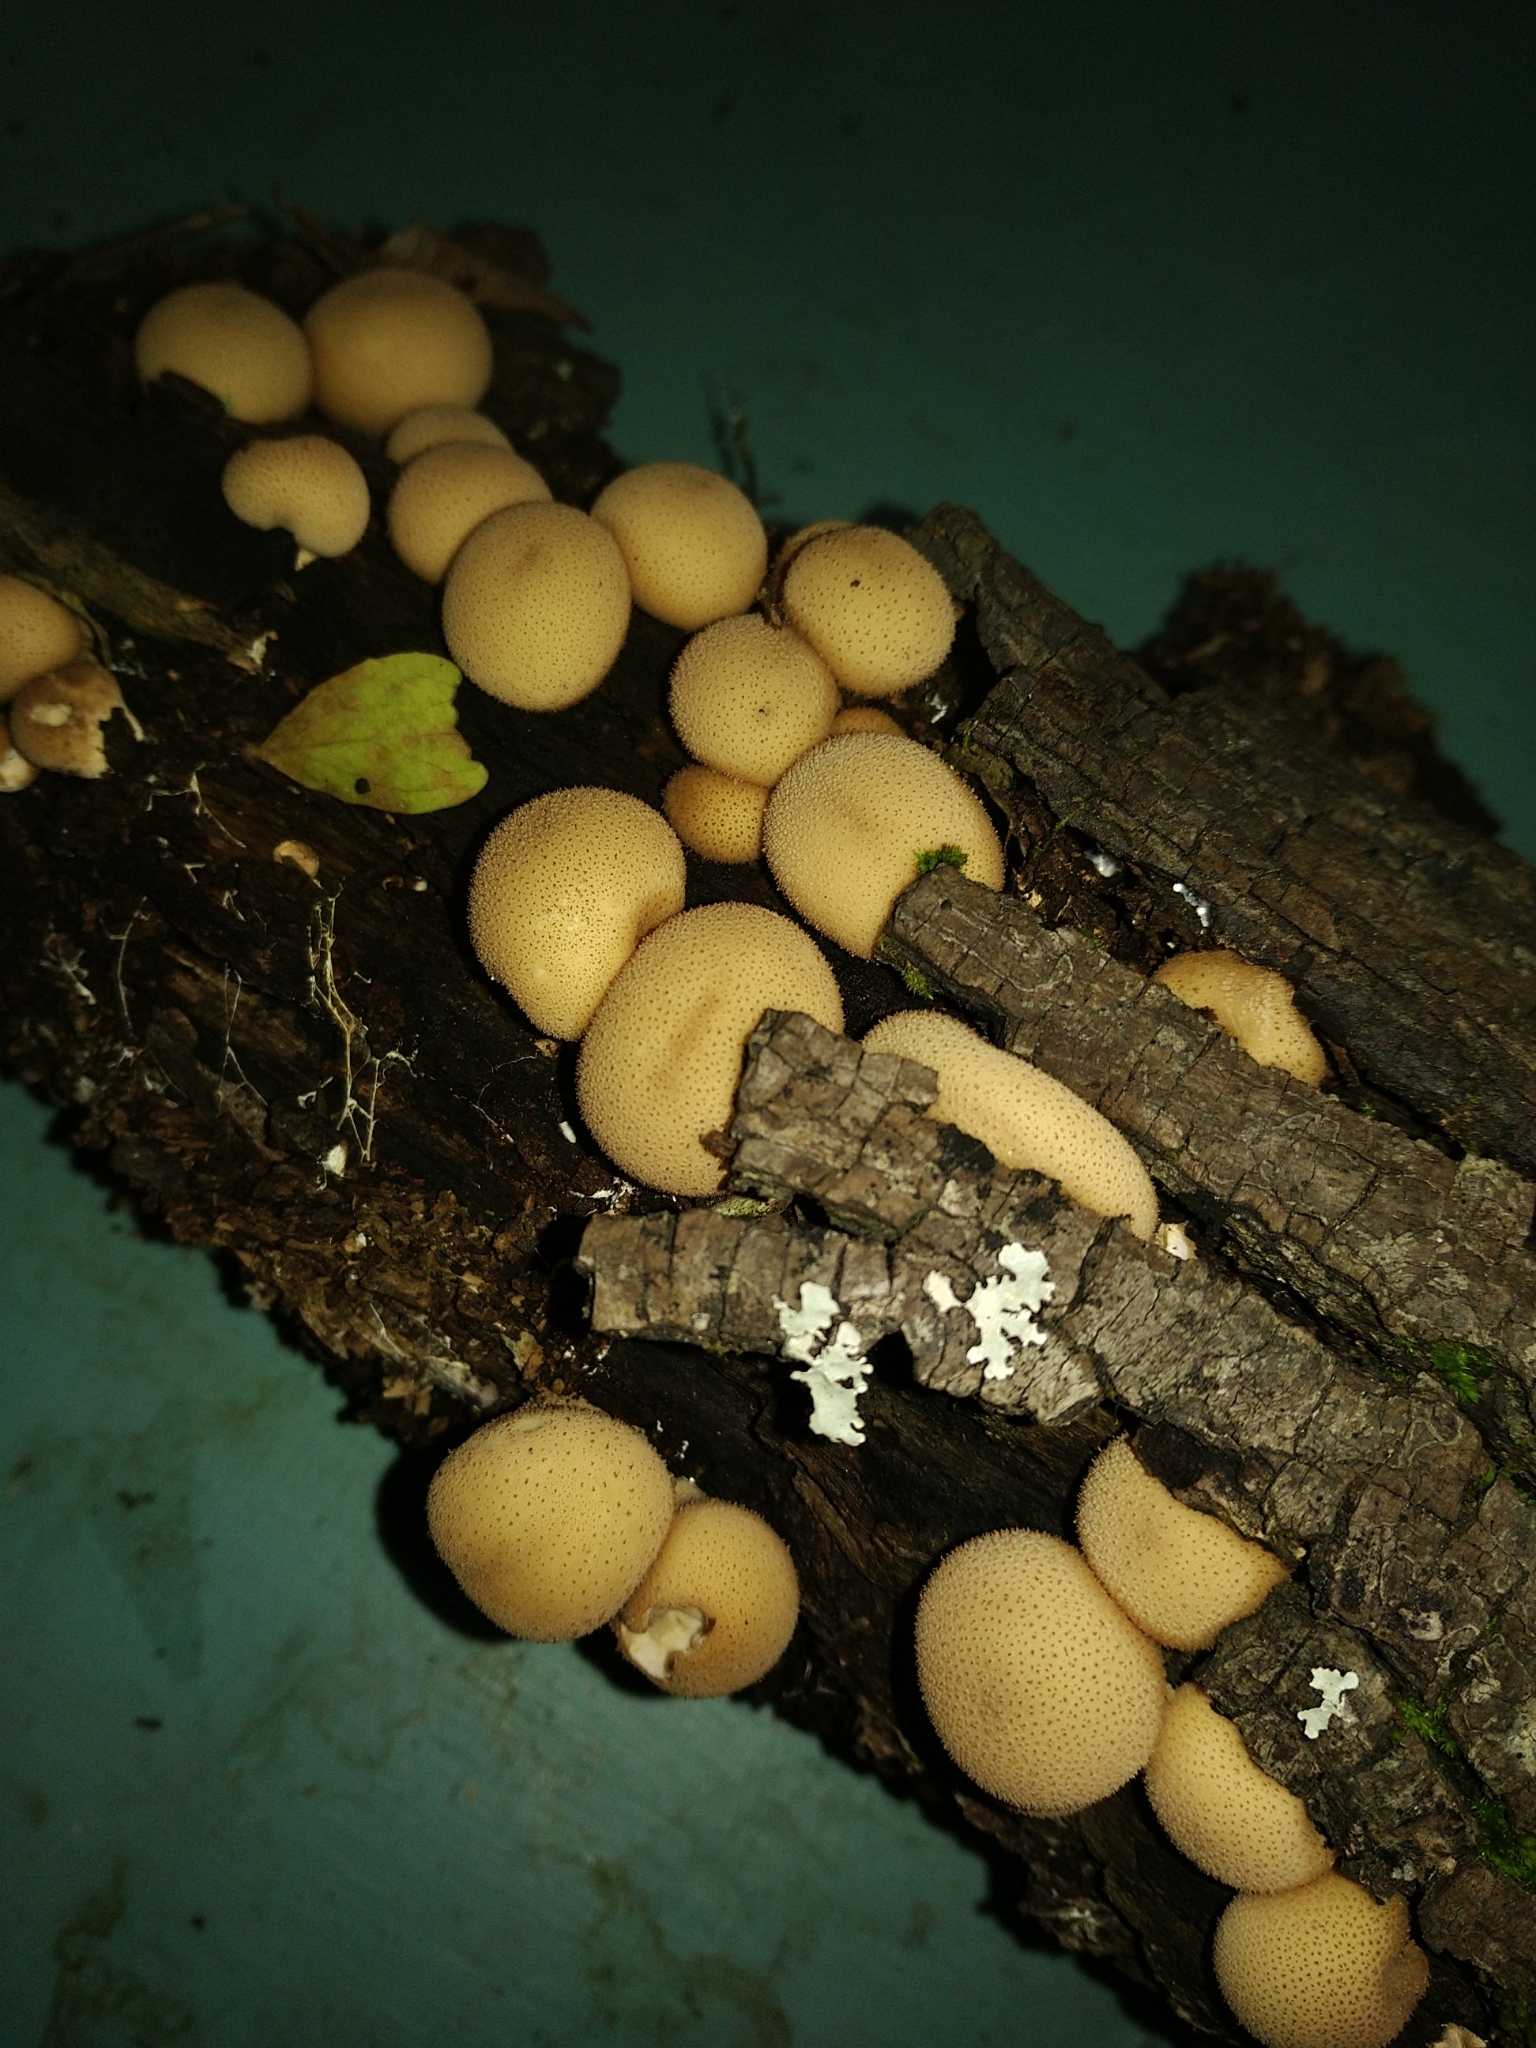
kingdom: Fungi
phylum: Basidiomycota
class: Agaricomycetes
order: Agaricales
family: Lycoperdaceae
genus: Apioperdon
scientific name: Apioperdon pyriforme
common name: Pear-shaped puffball
